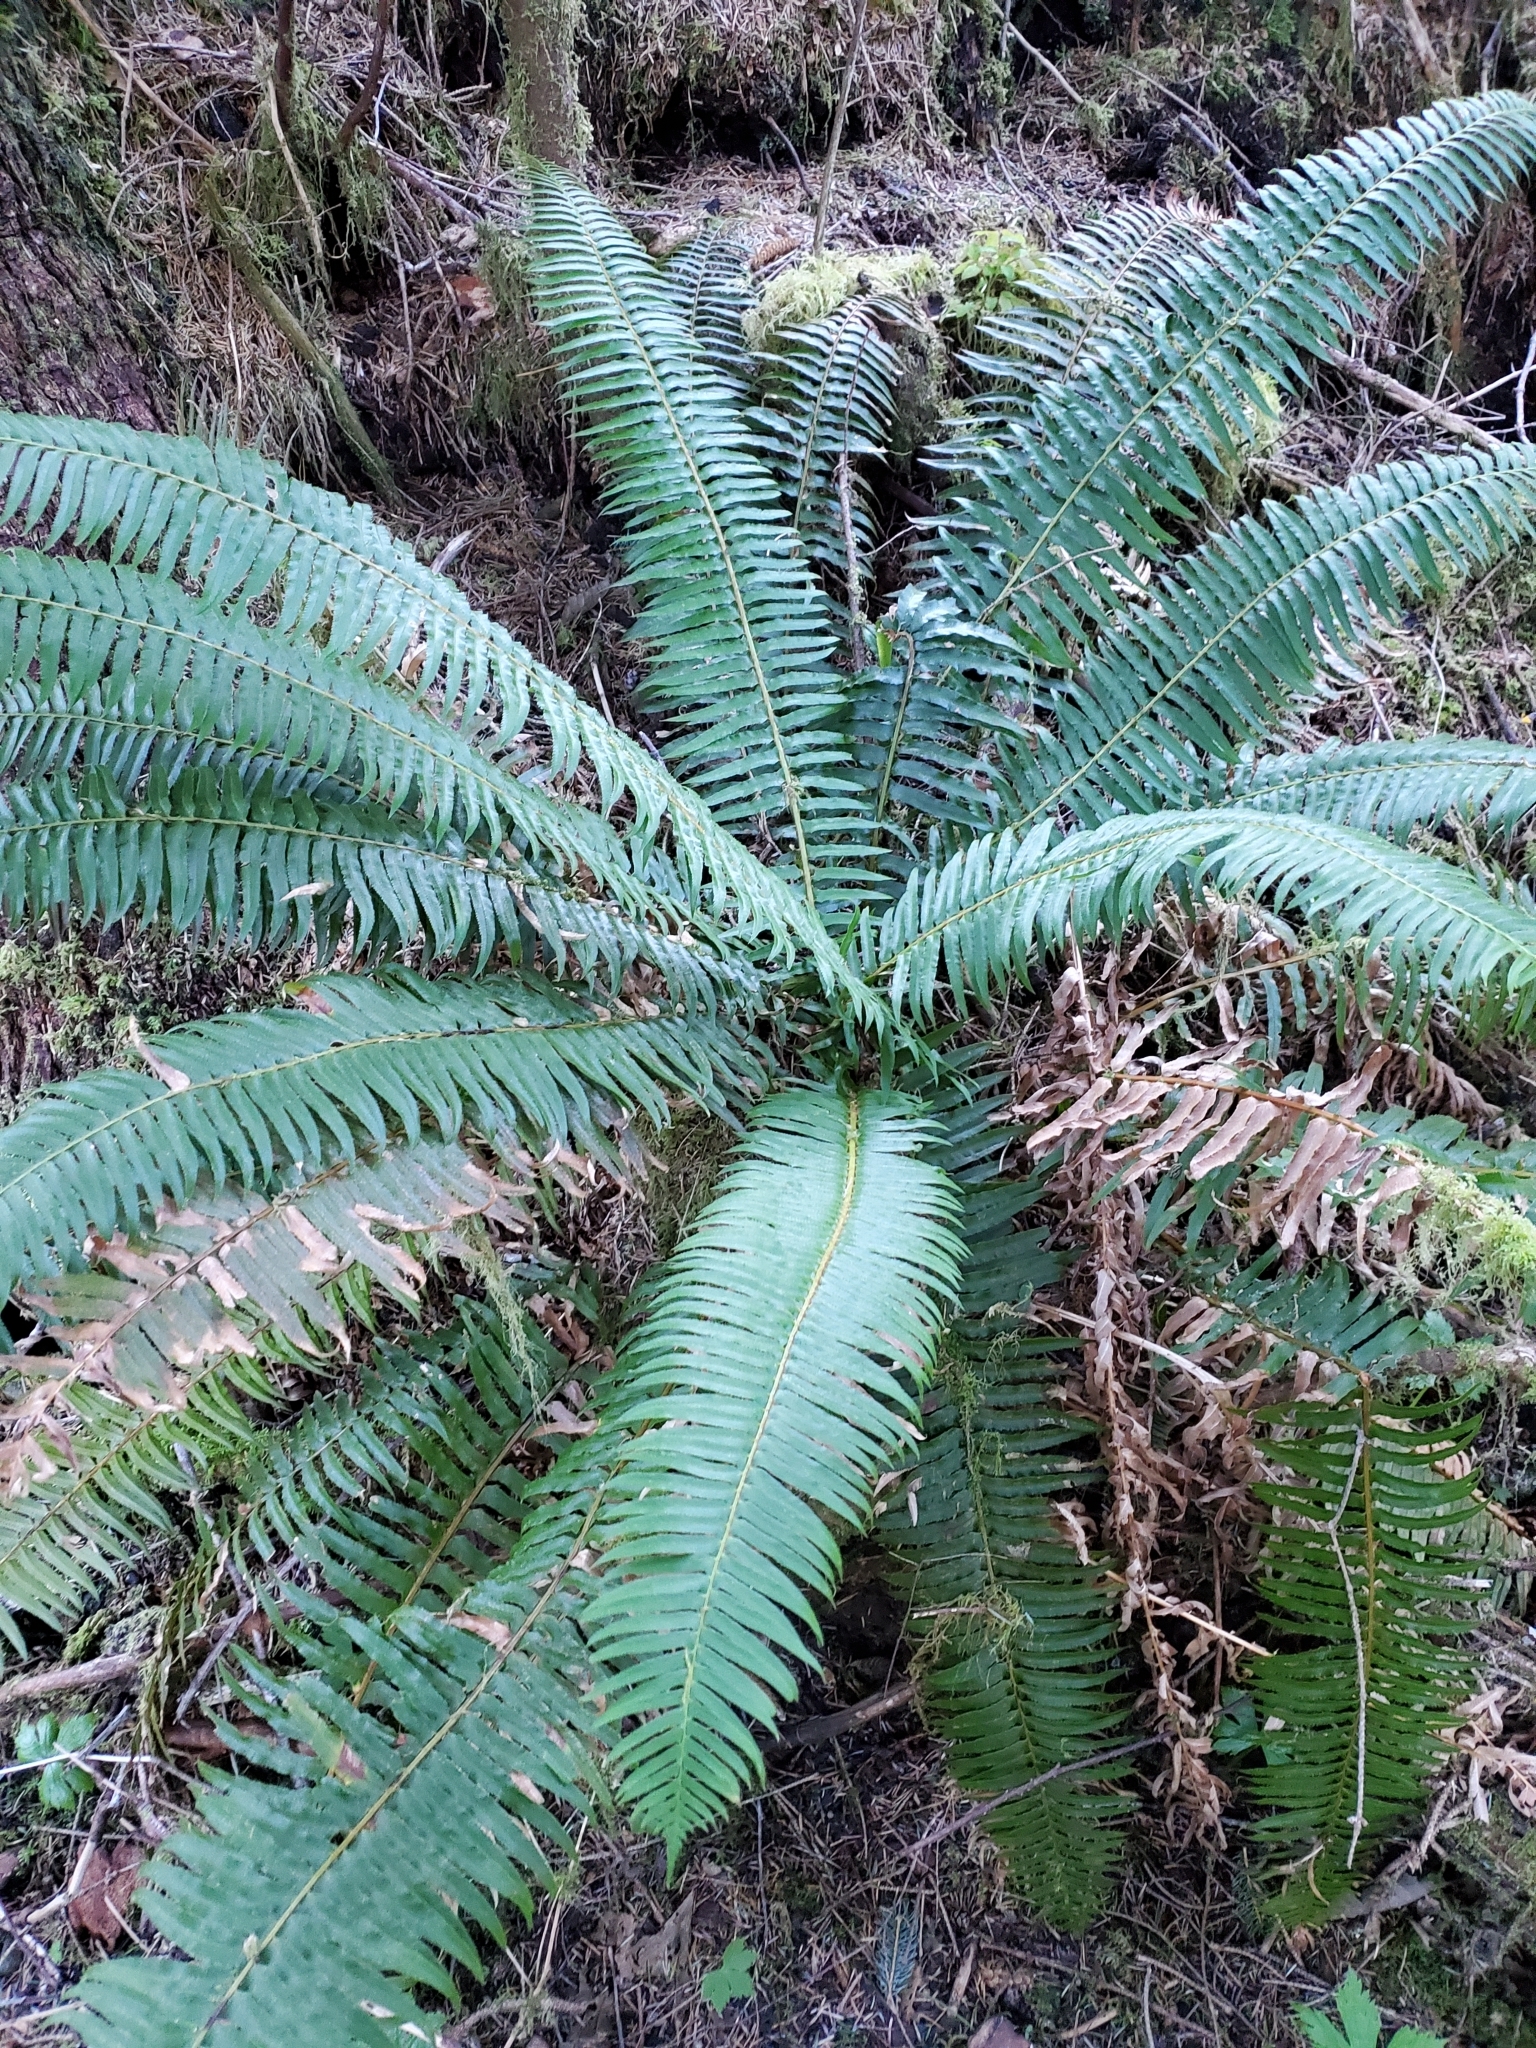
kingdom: Plantae
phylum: Tracheophyta
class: Polypodiopsida
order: Polypodiales
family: Dryopteridaceae
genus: Polystichum
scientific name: Polystichum munitum
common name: Western sword-fern
